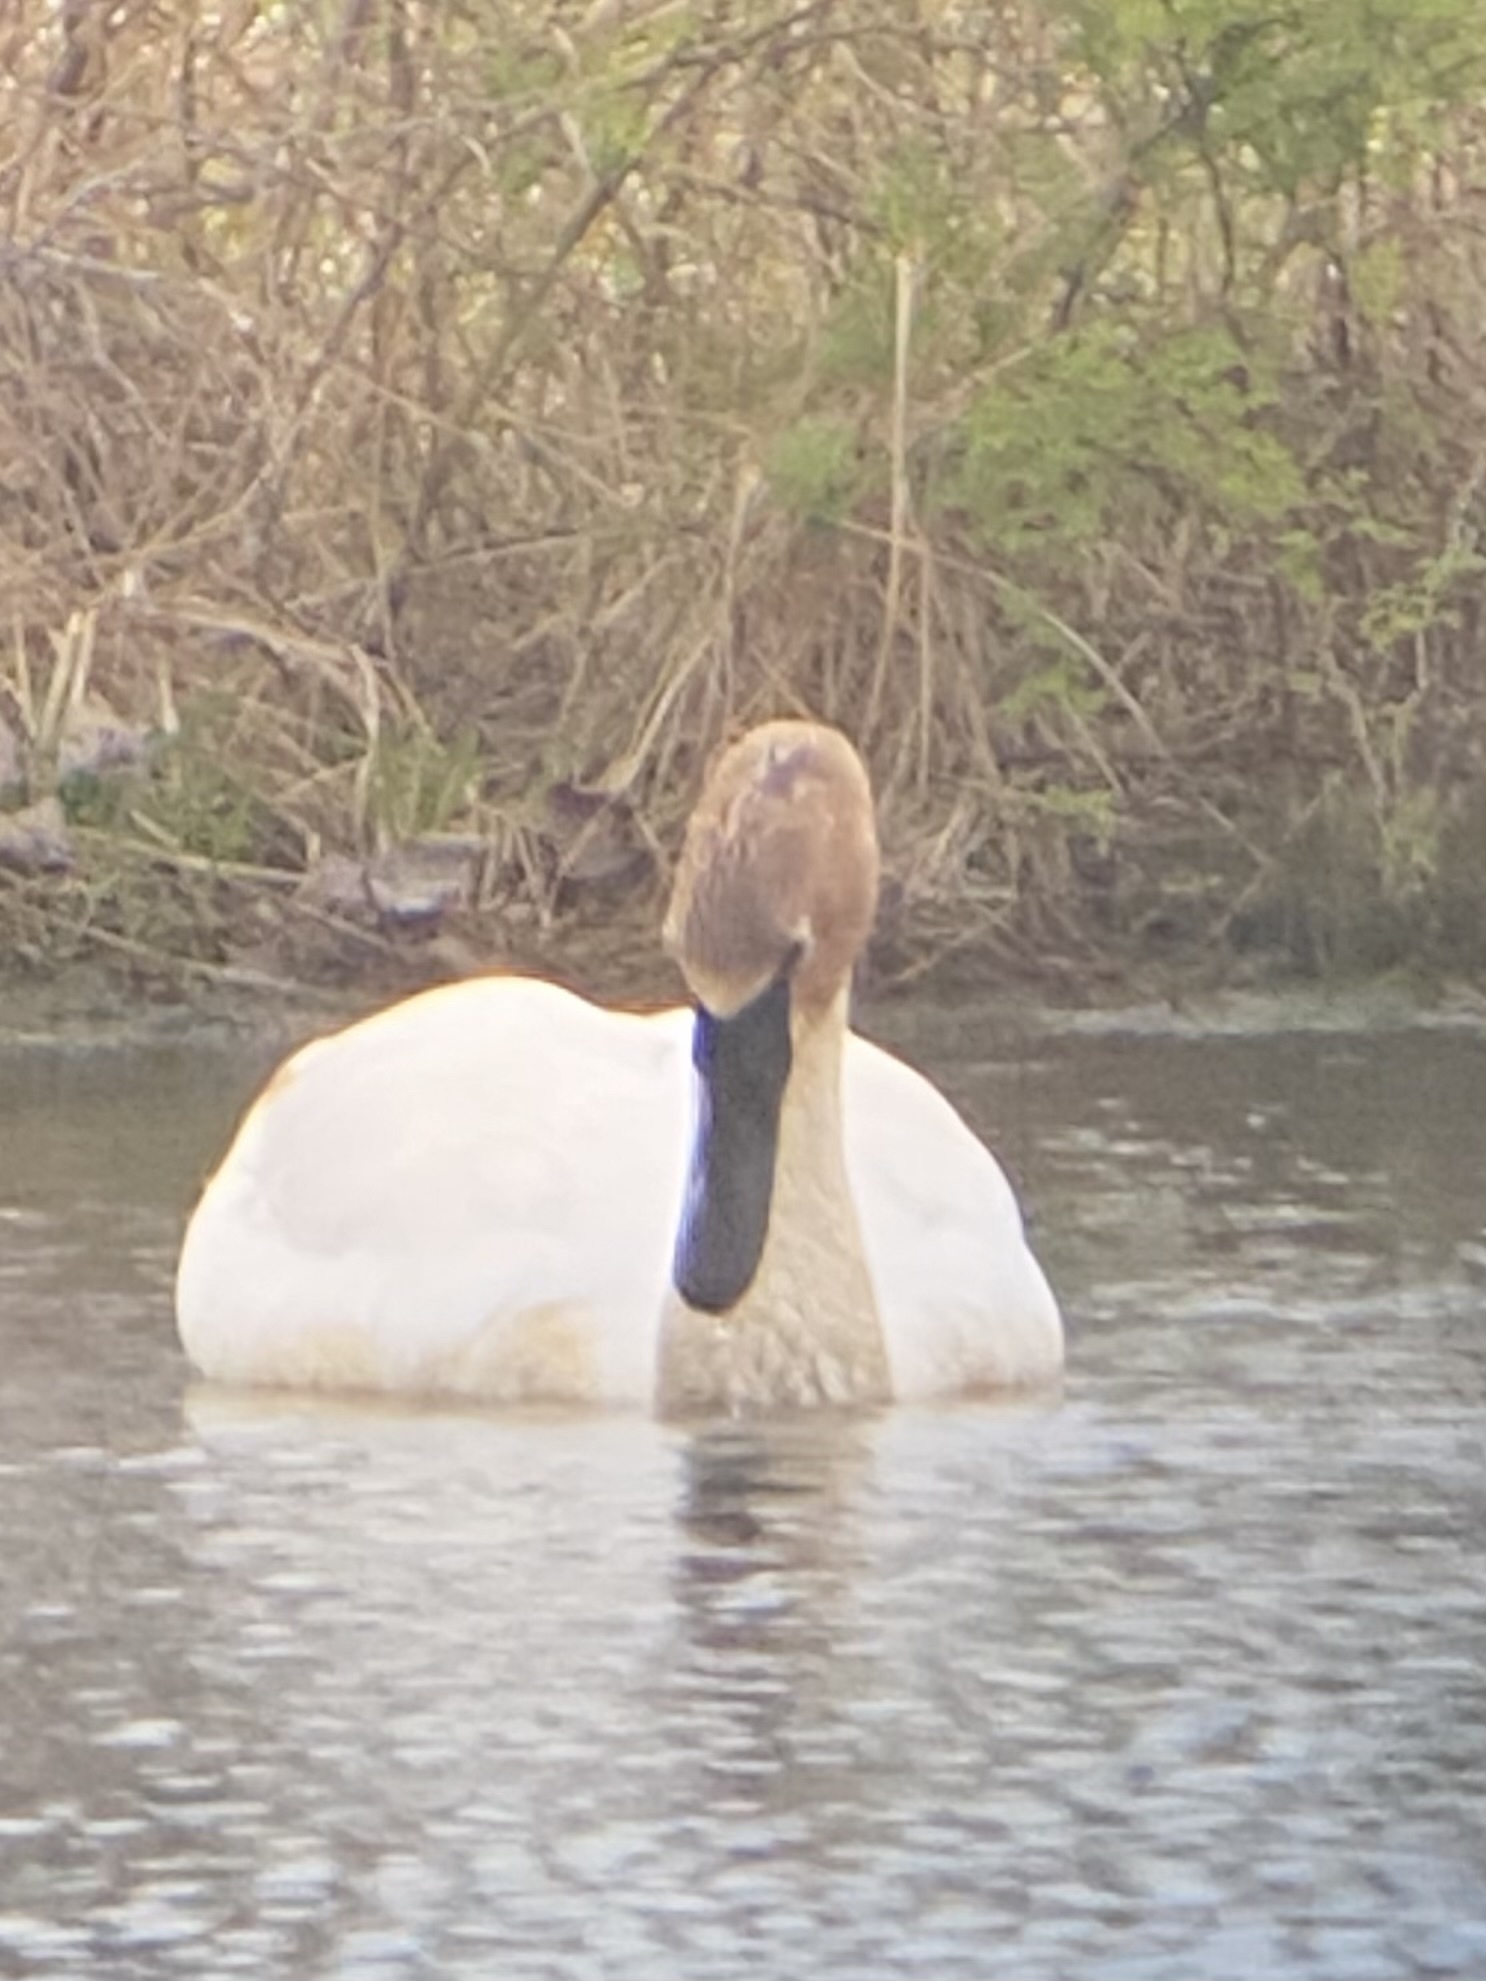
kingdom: Animalia
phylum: Chordata
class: Aves
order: Anseriformes
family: Anatidae
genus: Cygnus
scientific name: Cygnus buccinator
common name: Trumpeter swan
